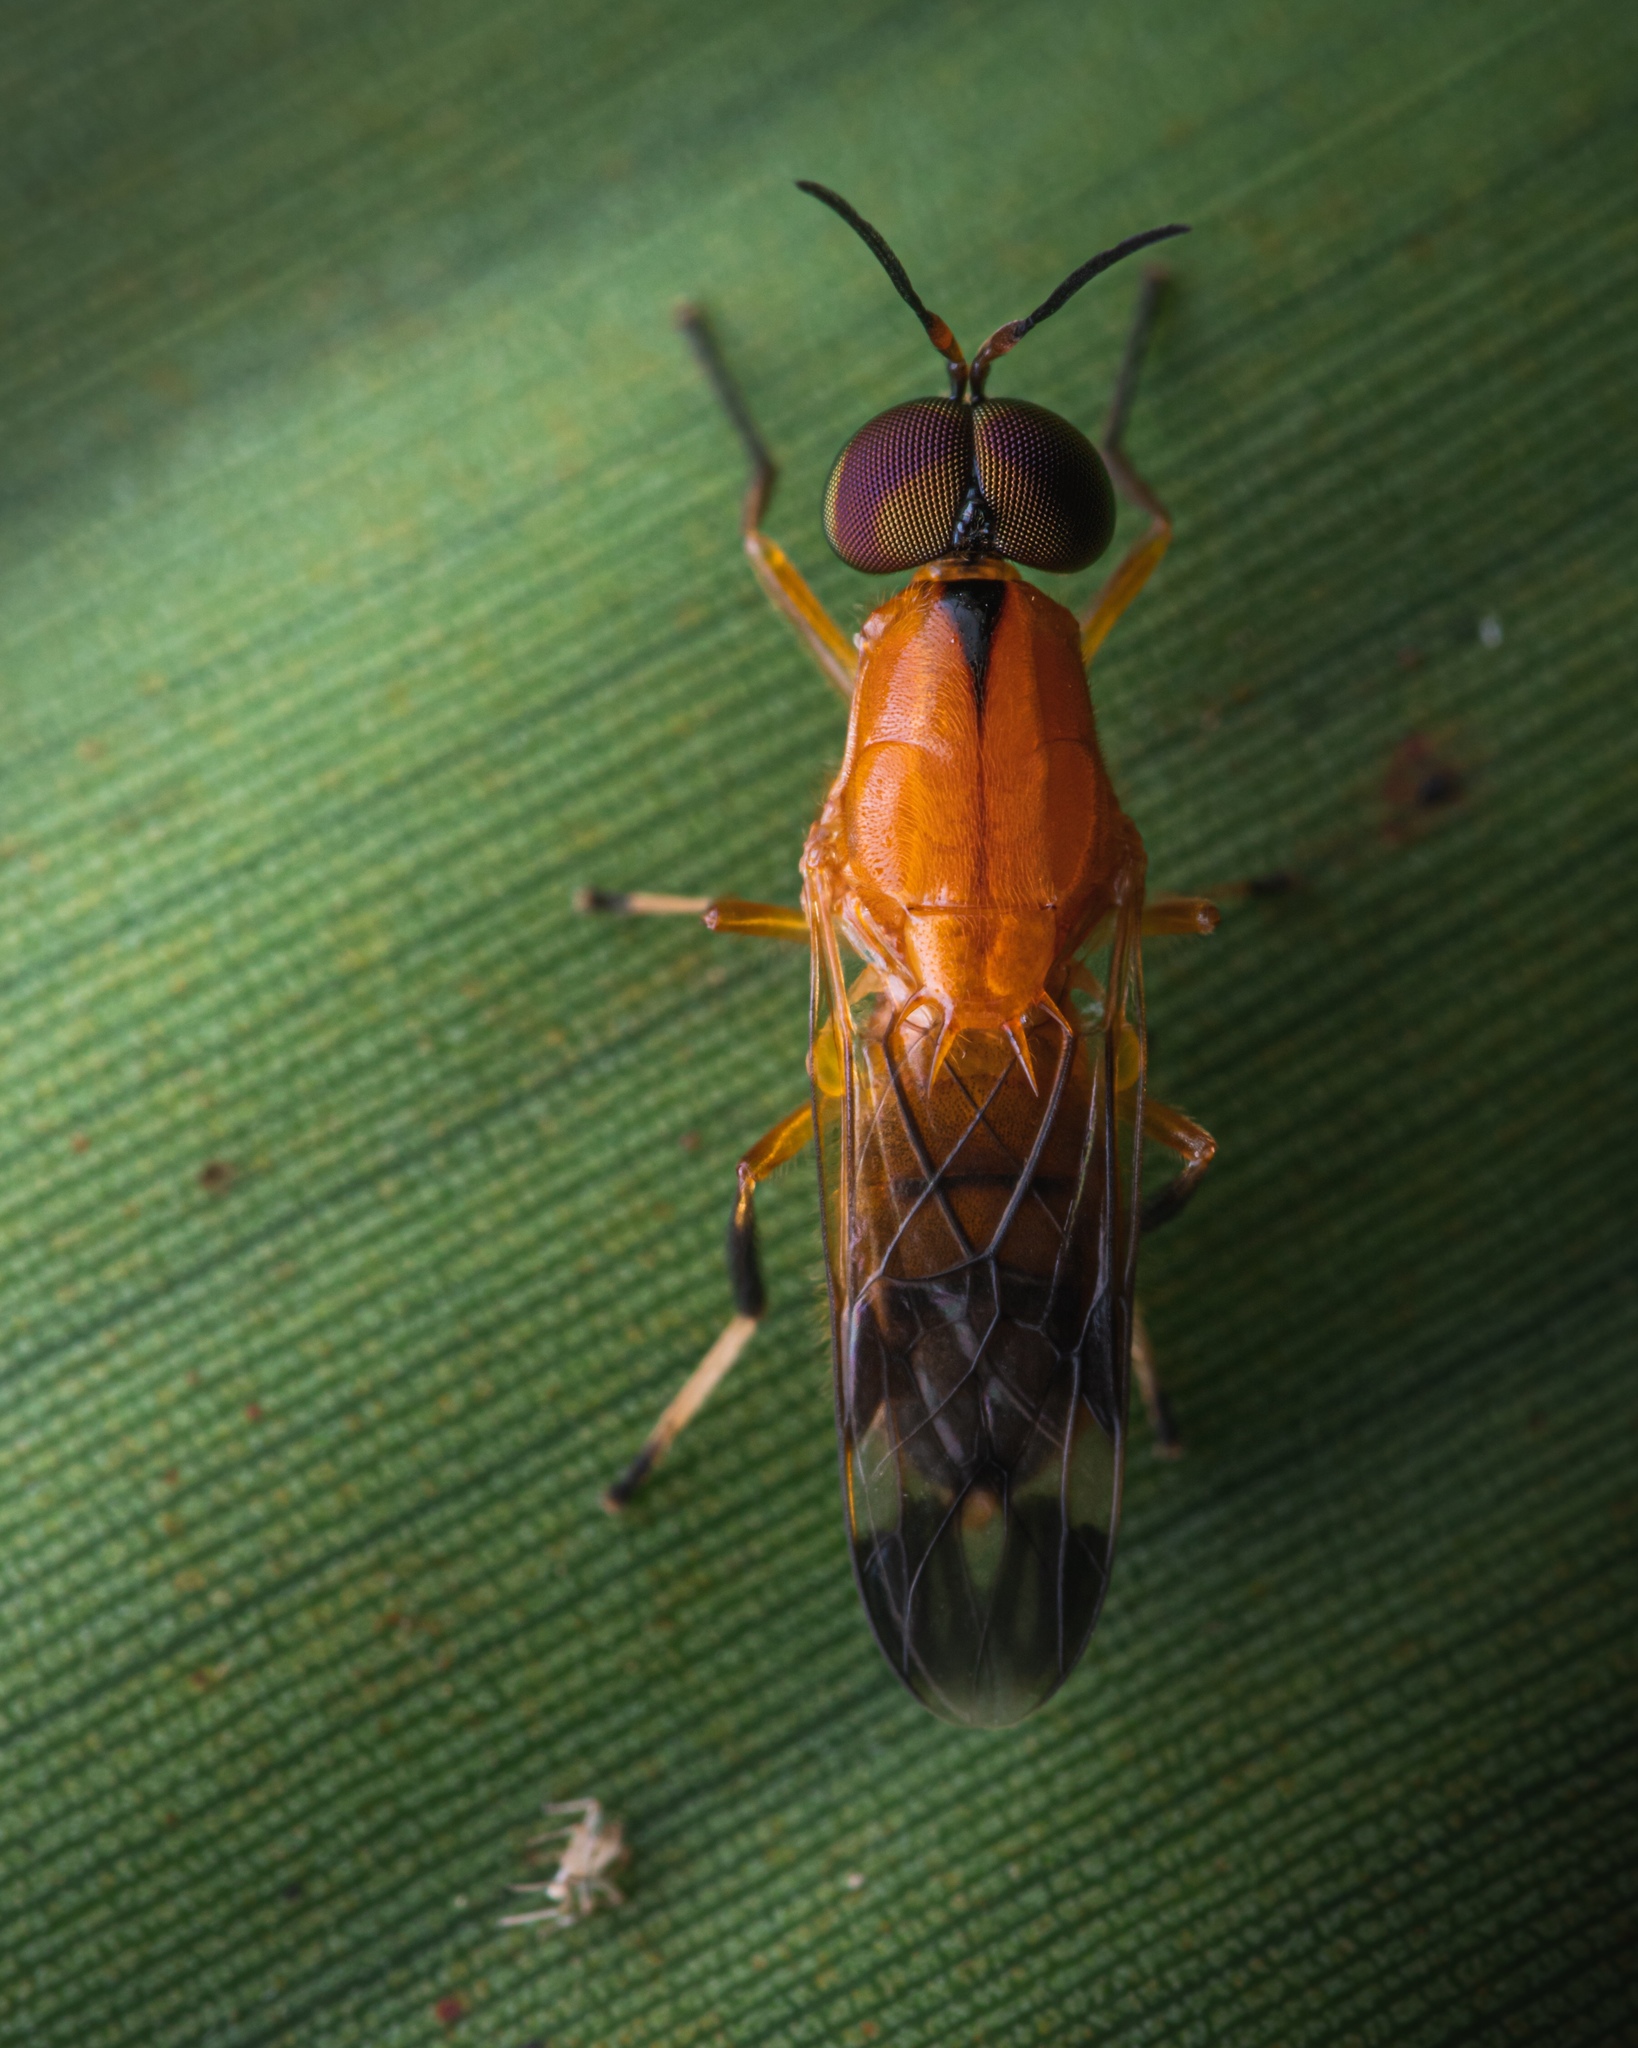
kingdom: Animalia
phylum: Arthropoda
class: Insecta
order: Diptera
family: Stratiomyidae
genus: Rosapha
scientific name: Rosapha habilis
